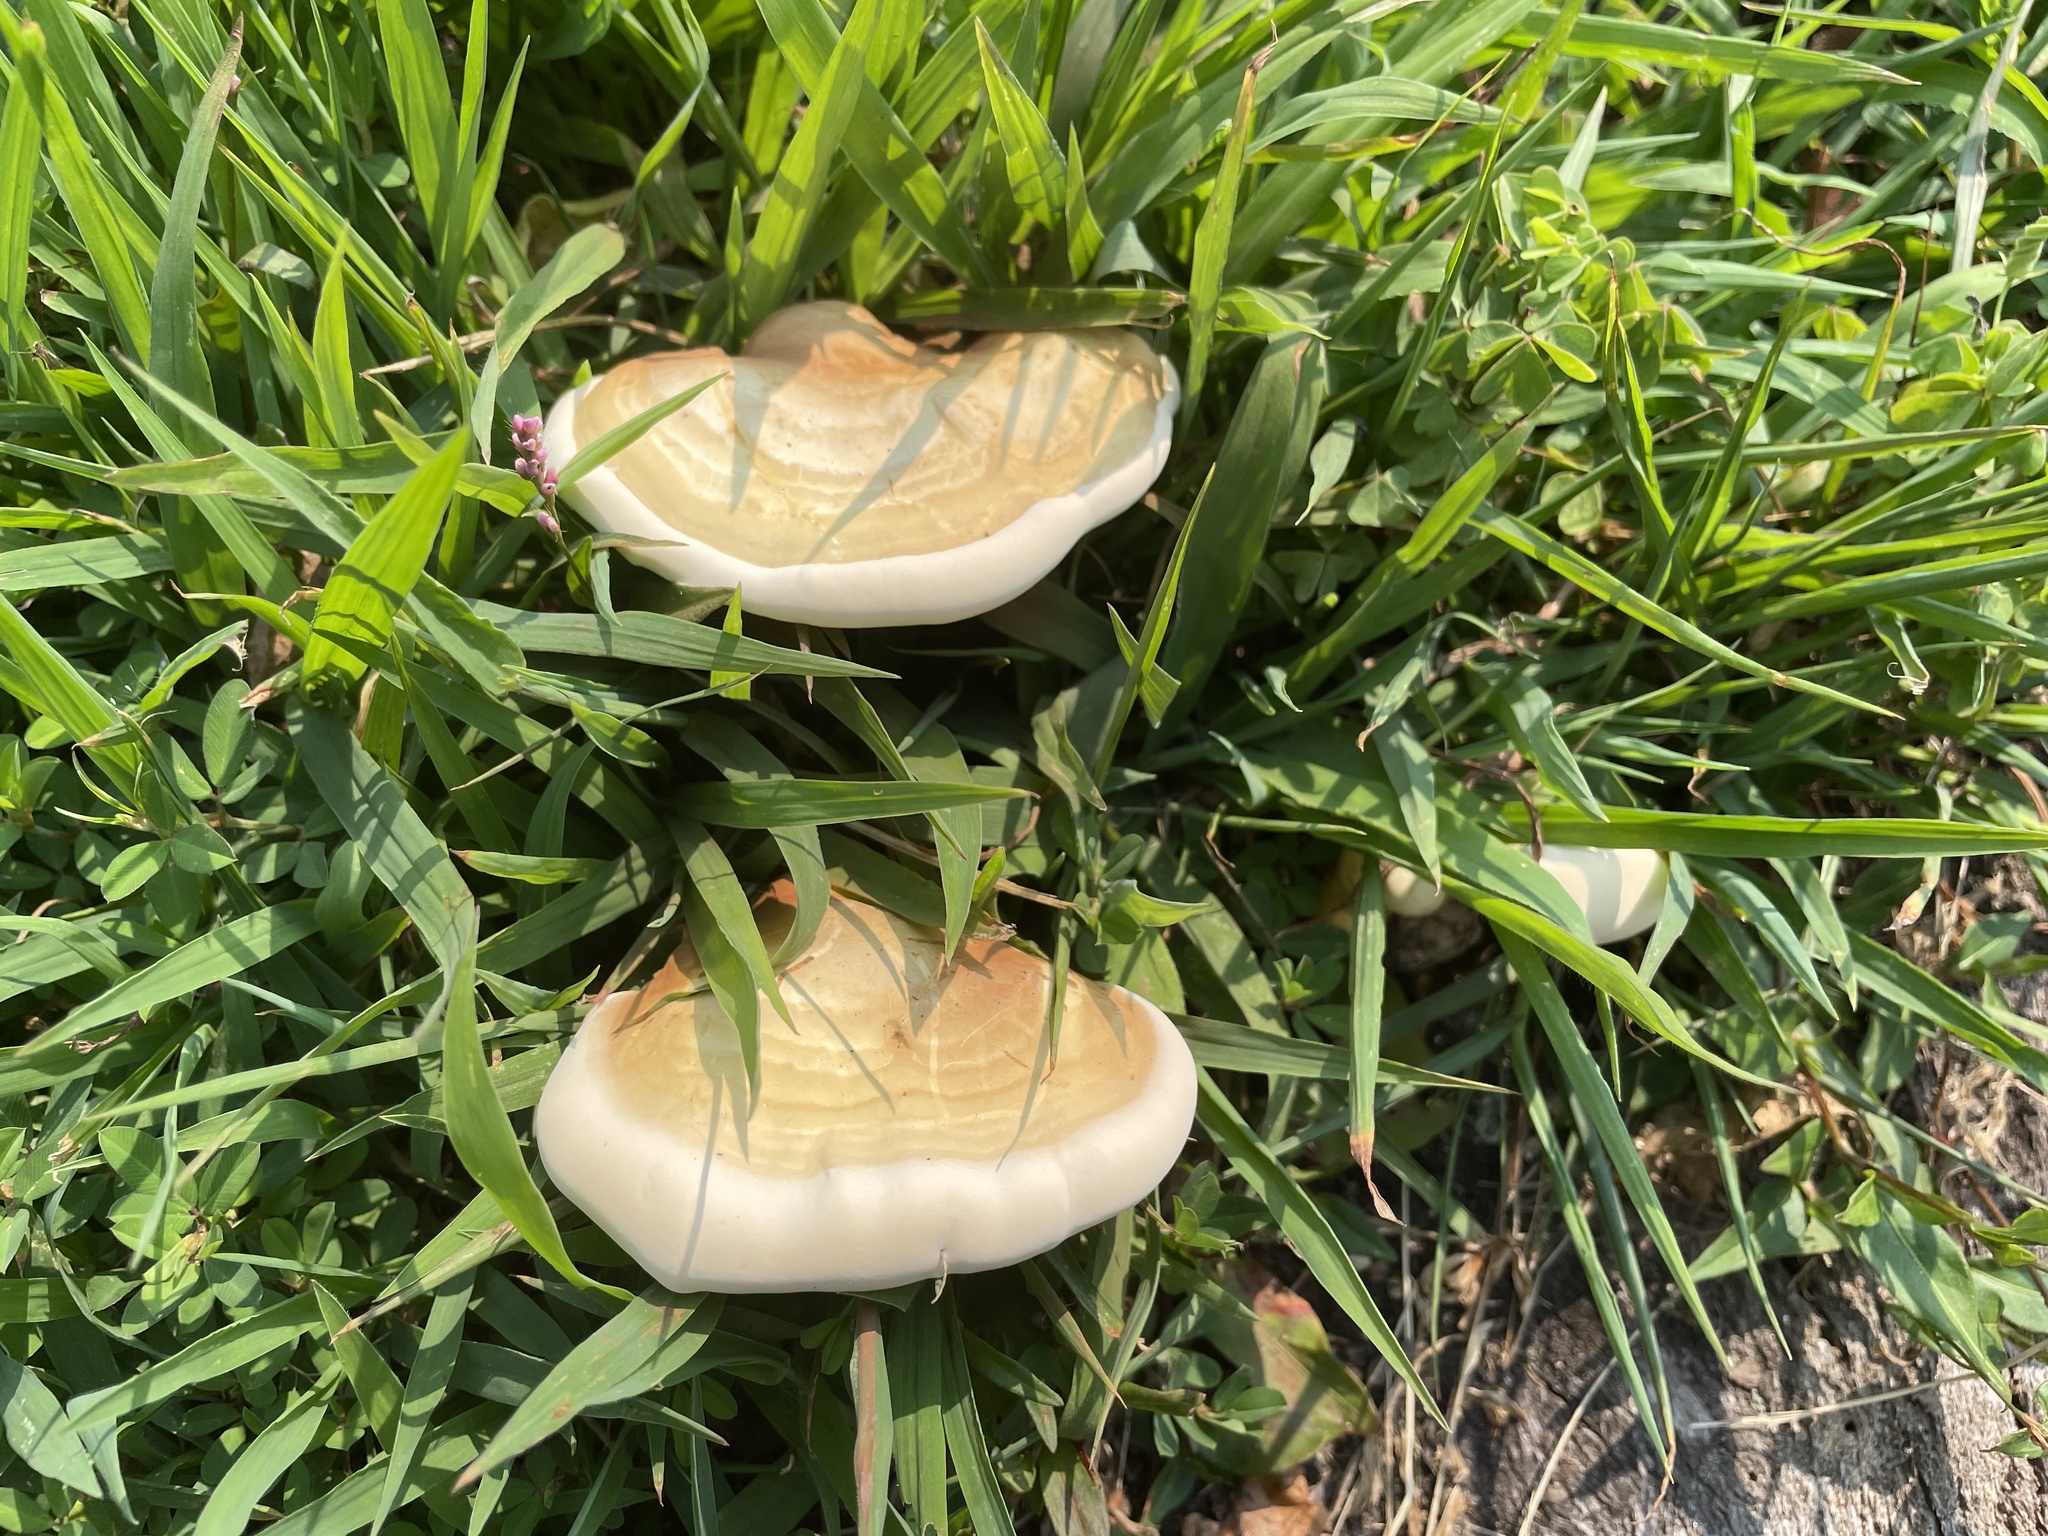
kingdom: Fungi
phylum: Basidiomycota
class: Agaricomycetes
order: Polyporales
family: Polyporaceae
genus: Ganoderma
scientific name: Ganoderma curtisii
